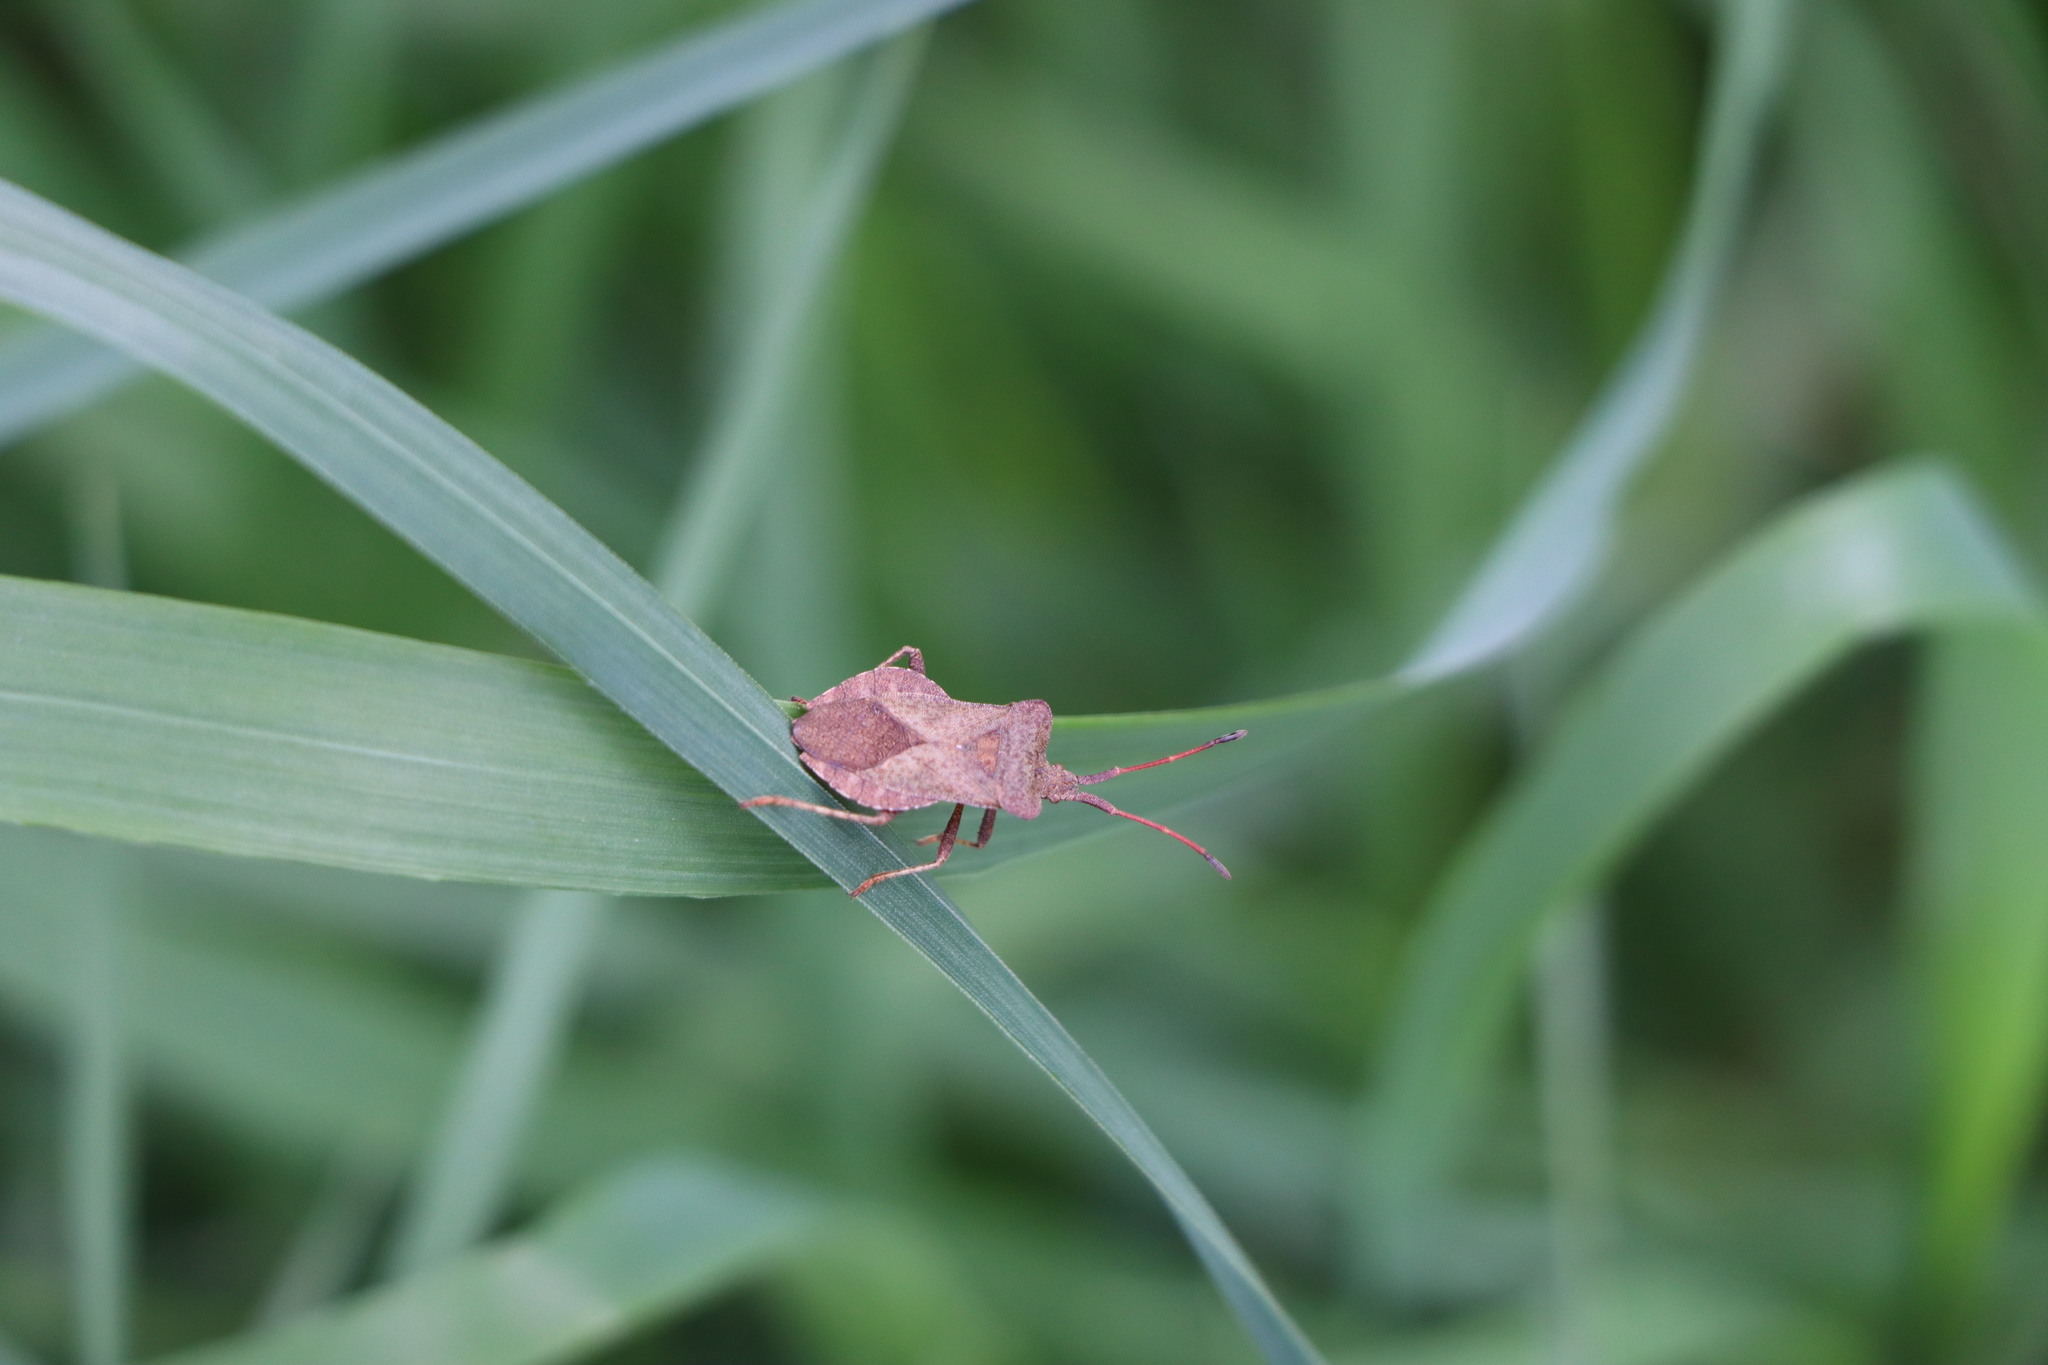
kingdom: Animalia
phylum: Arthropoda
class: Insecta
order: Hemiptera
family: Coreidae
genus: Coreus
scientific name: Coreus marginatus
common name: Dock bug
